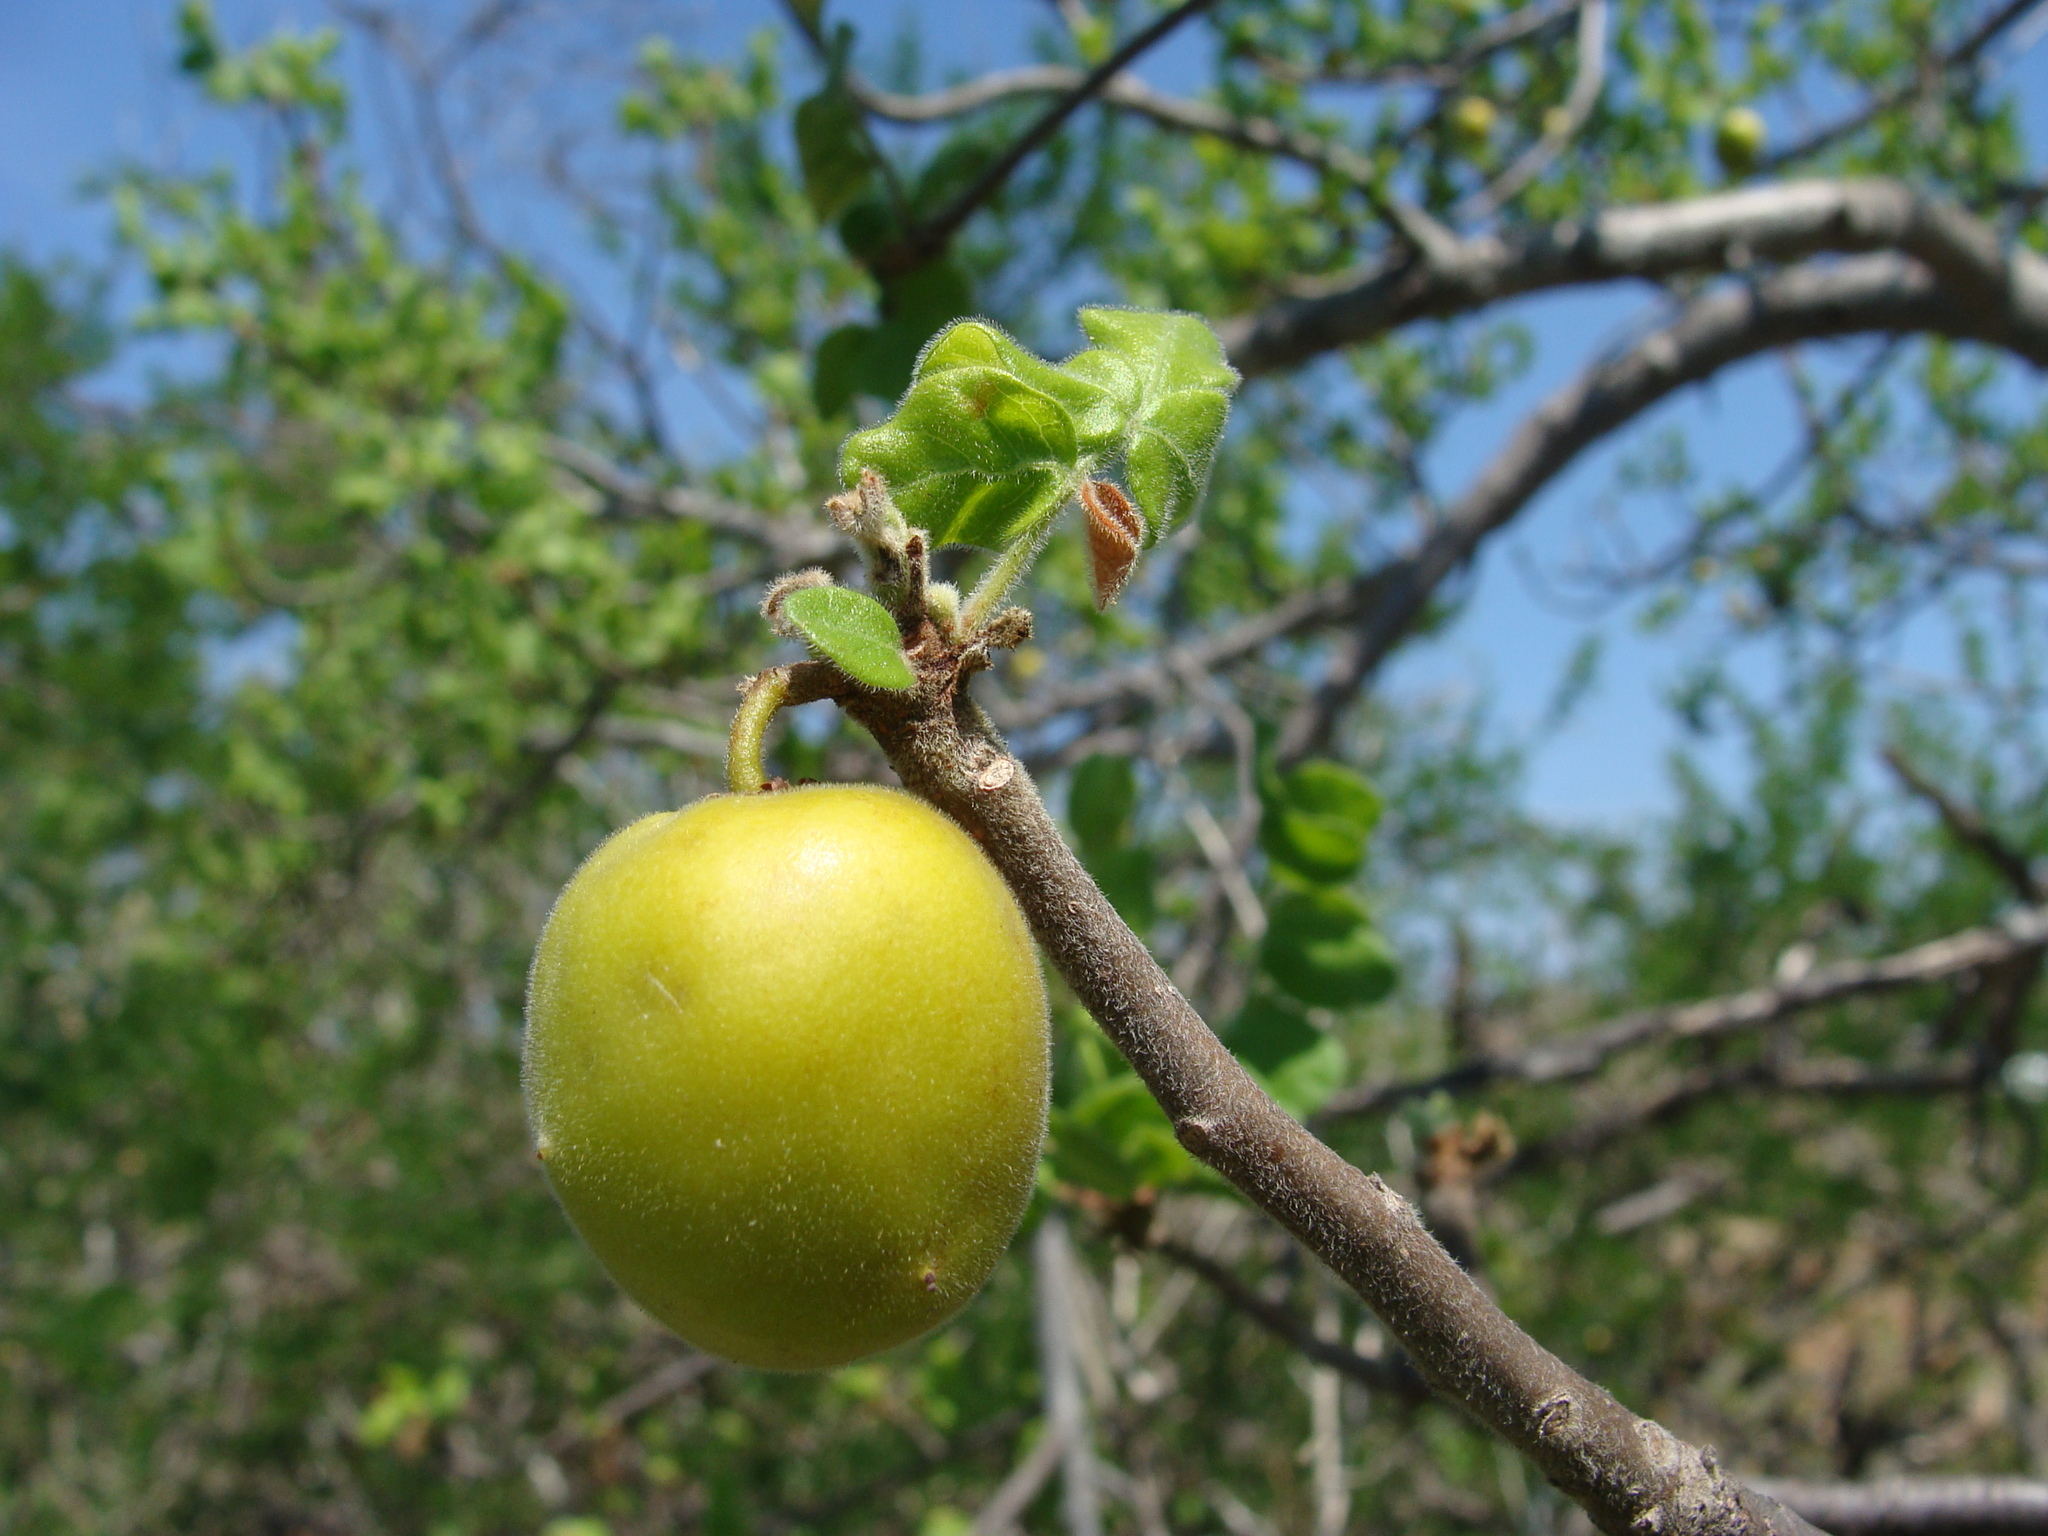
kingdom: Plantae
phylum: Tracheophyta
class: Magnoliopsida
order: Sapindales
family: Anacardiaceae
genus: Cyrtocarpa
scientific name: Cyrtocarpa edulis
